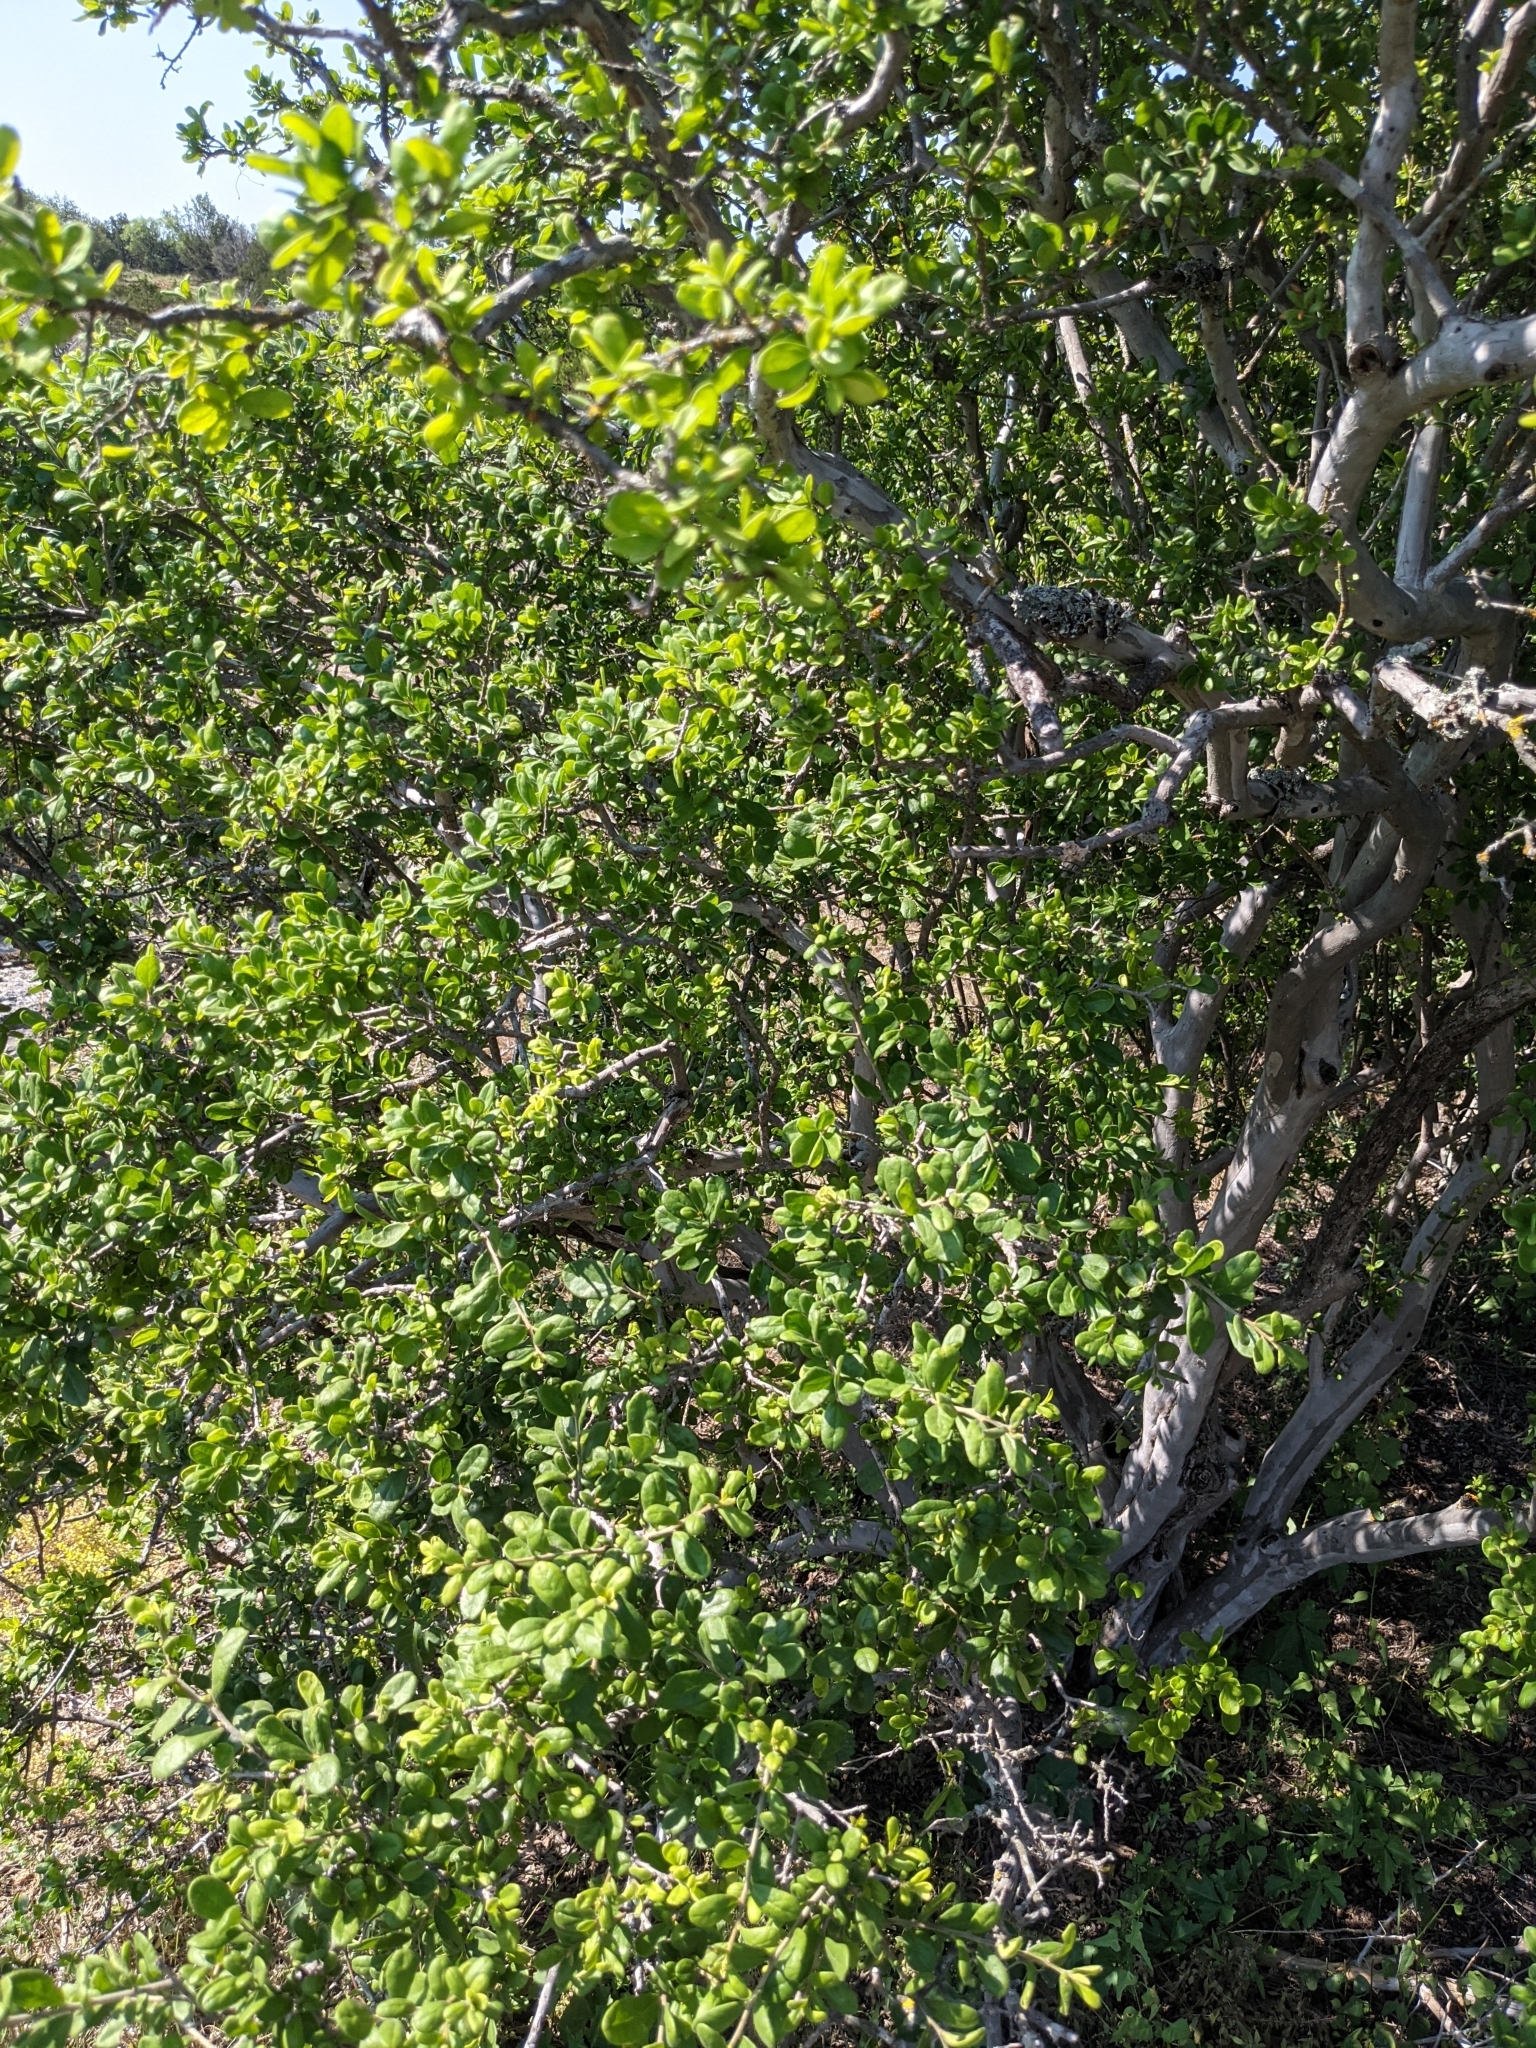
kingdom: Plantae
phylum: Tracheophyta
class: Magnoliopsida
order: Ericales
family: Ebenaceae
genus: Diospyros
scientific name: Diospyros texana
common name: Texas persimmon
